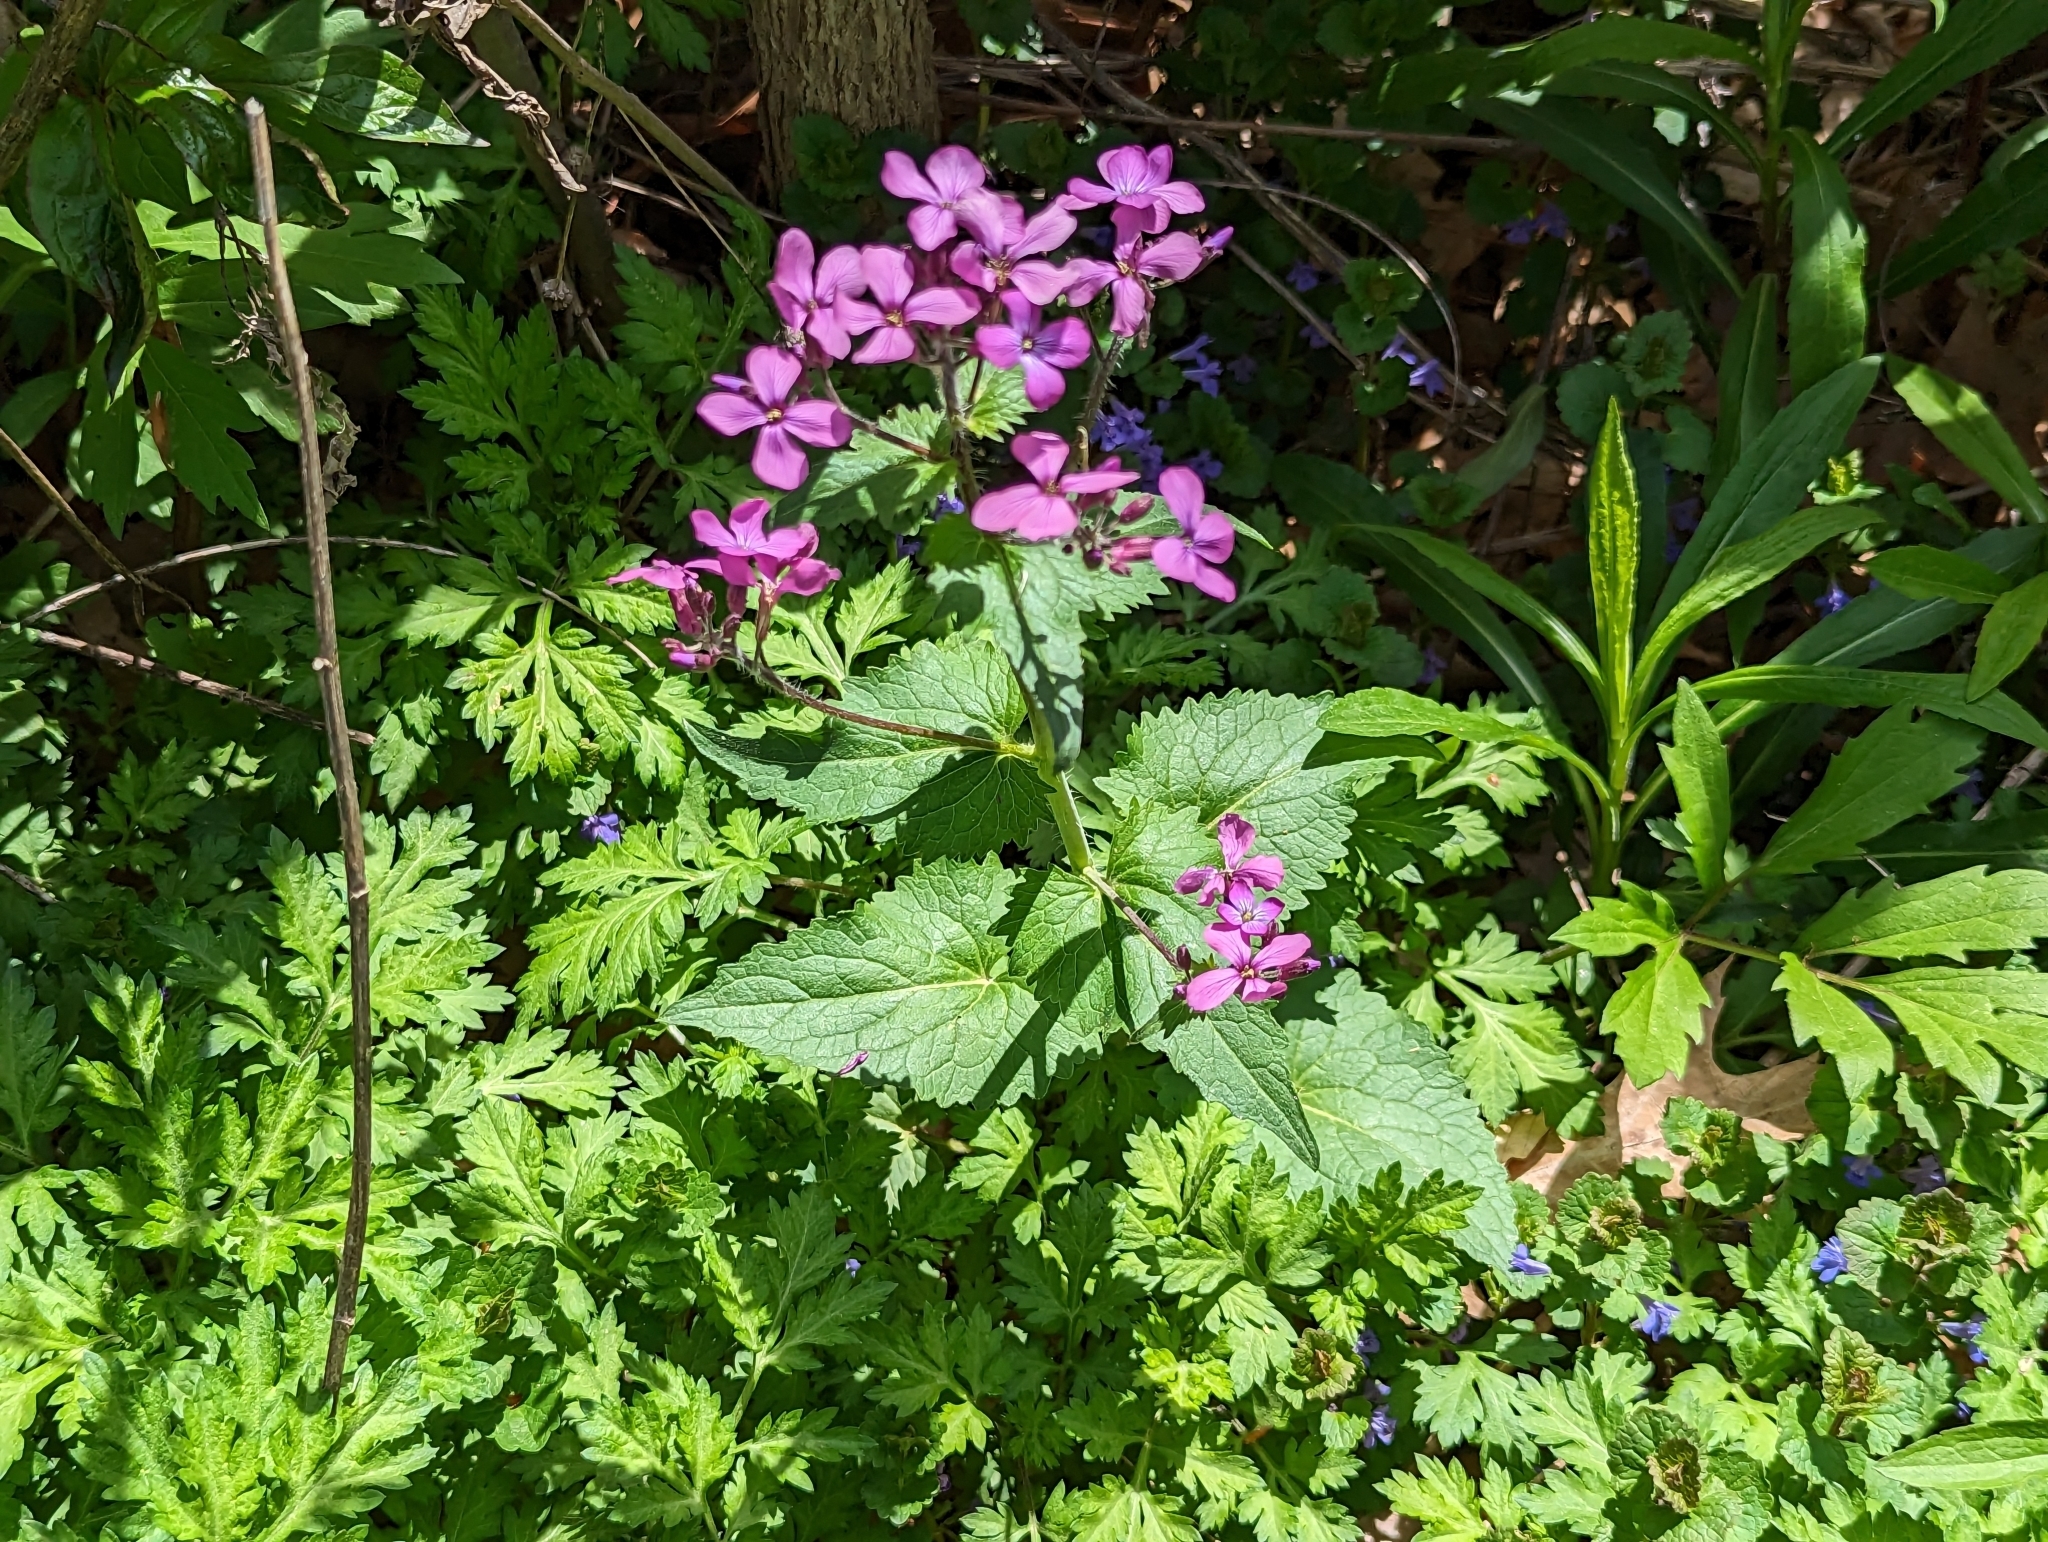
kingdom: Plantae
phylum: Tracheophyta
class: Magnoliopsida
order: Brassicales
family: Brassicaceae
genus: Lunaria
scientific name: Lunaria annua
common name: Honesty
